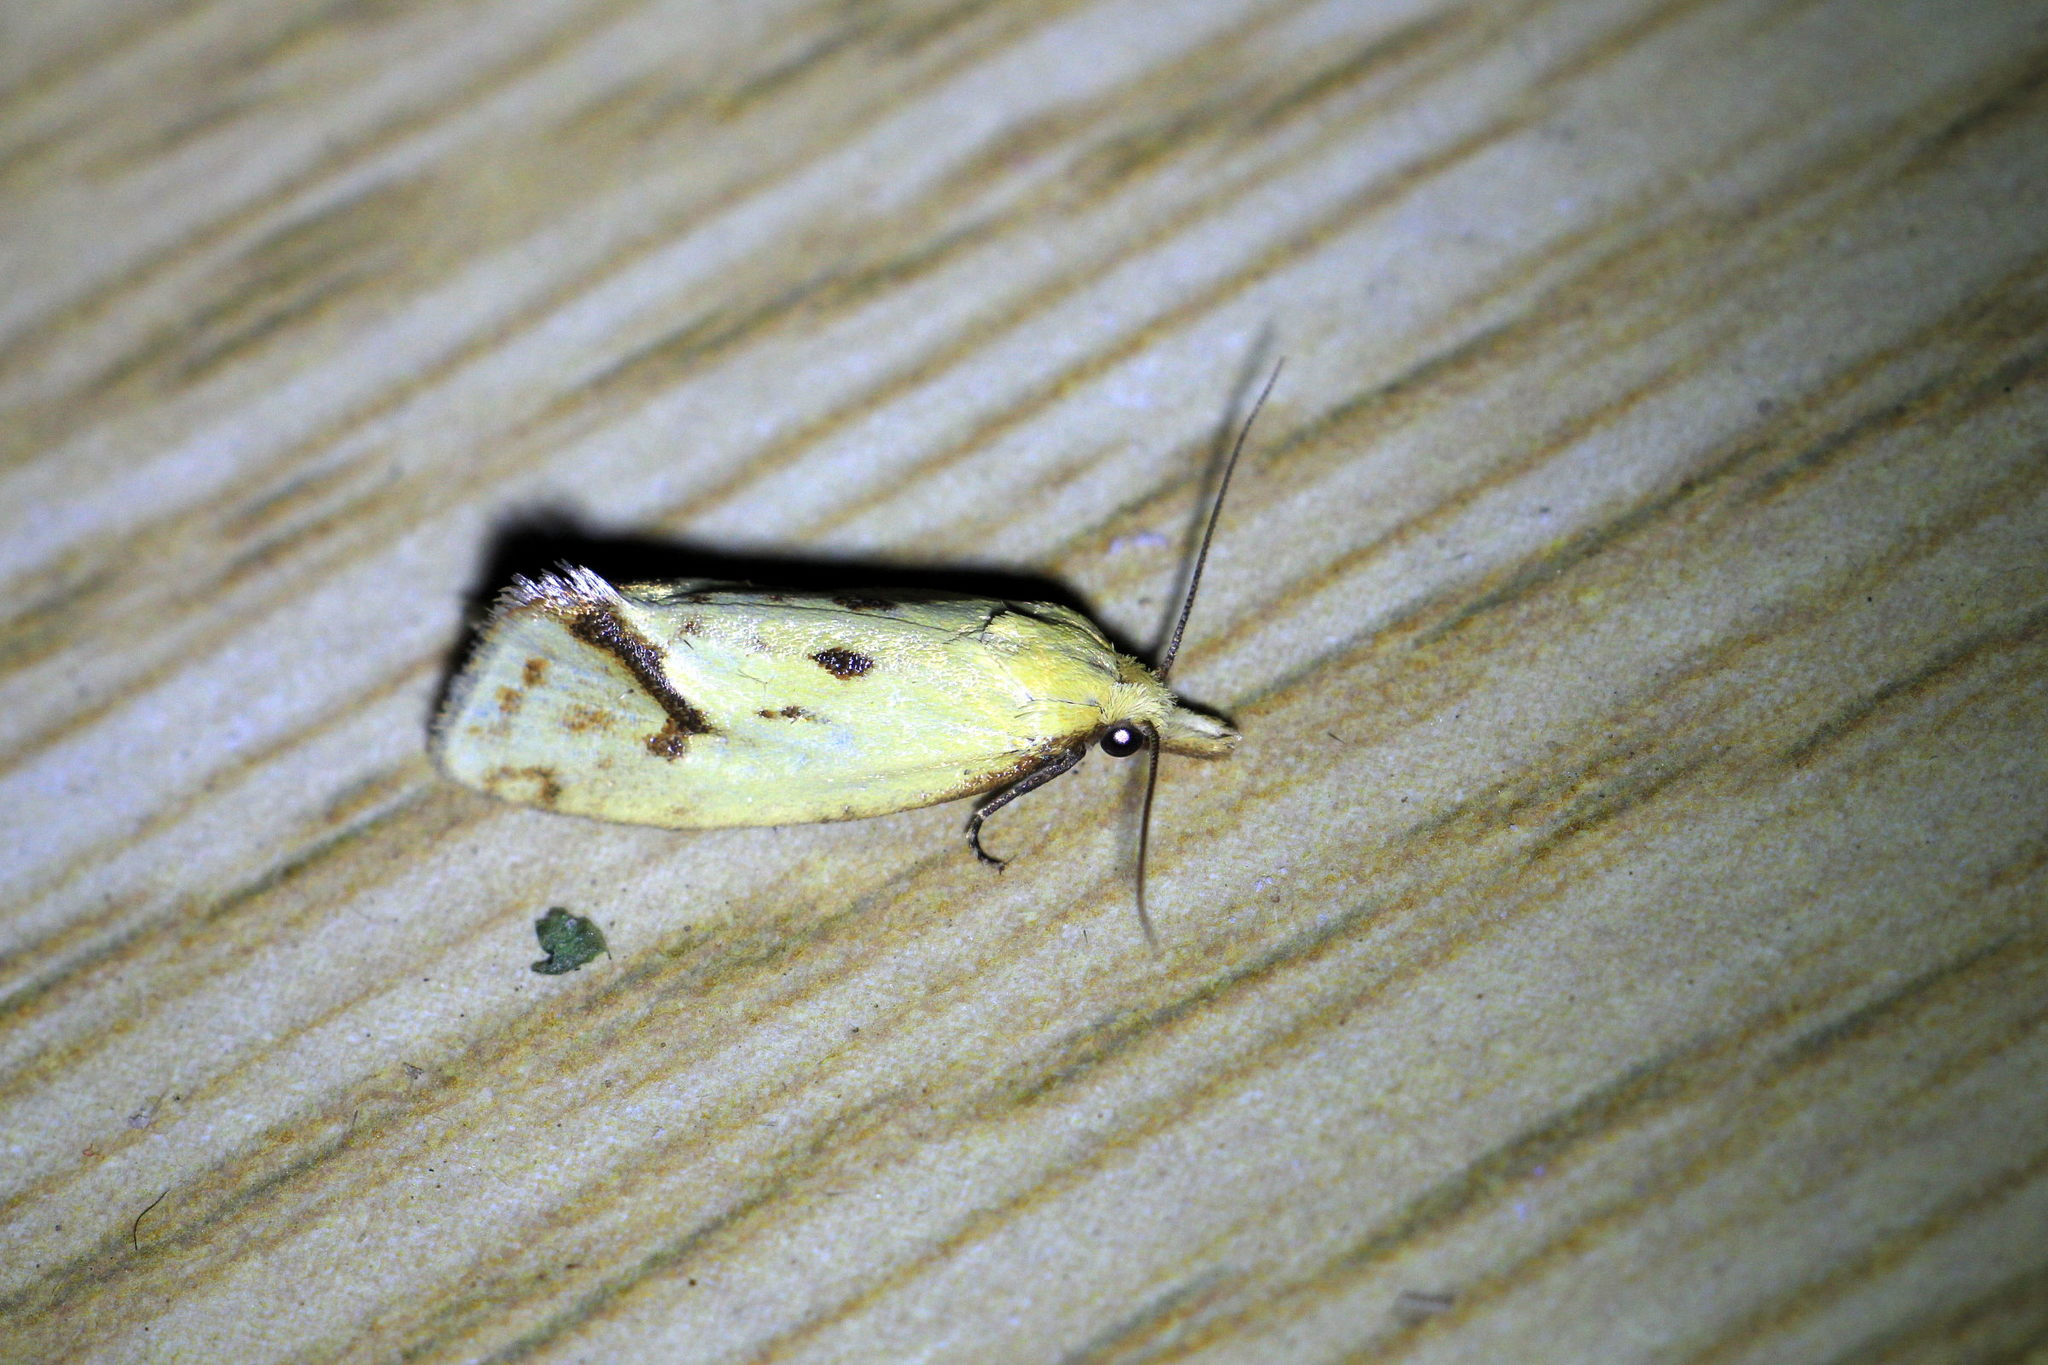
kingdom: Animalia
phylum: Arthropoda
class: Insecta
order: Lepidoptera
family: Tortricidae
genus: Agapeta
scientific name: Agapeta hamana
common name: Common yellow conch
